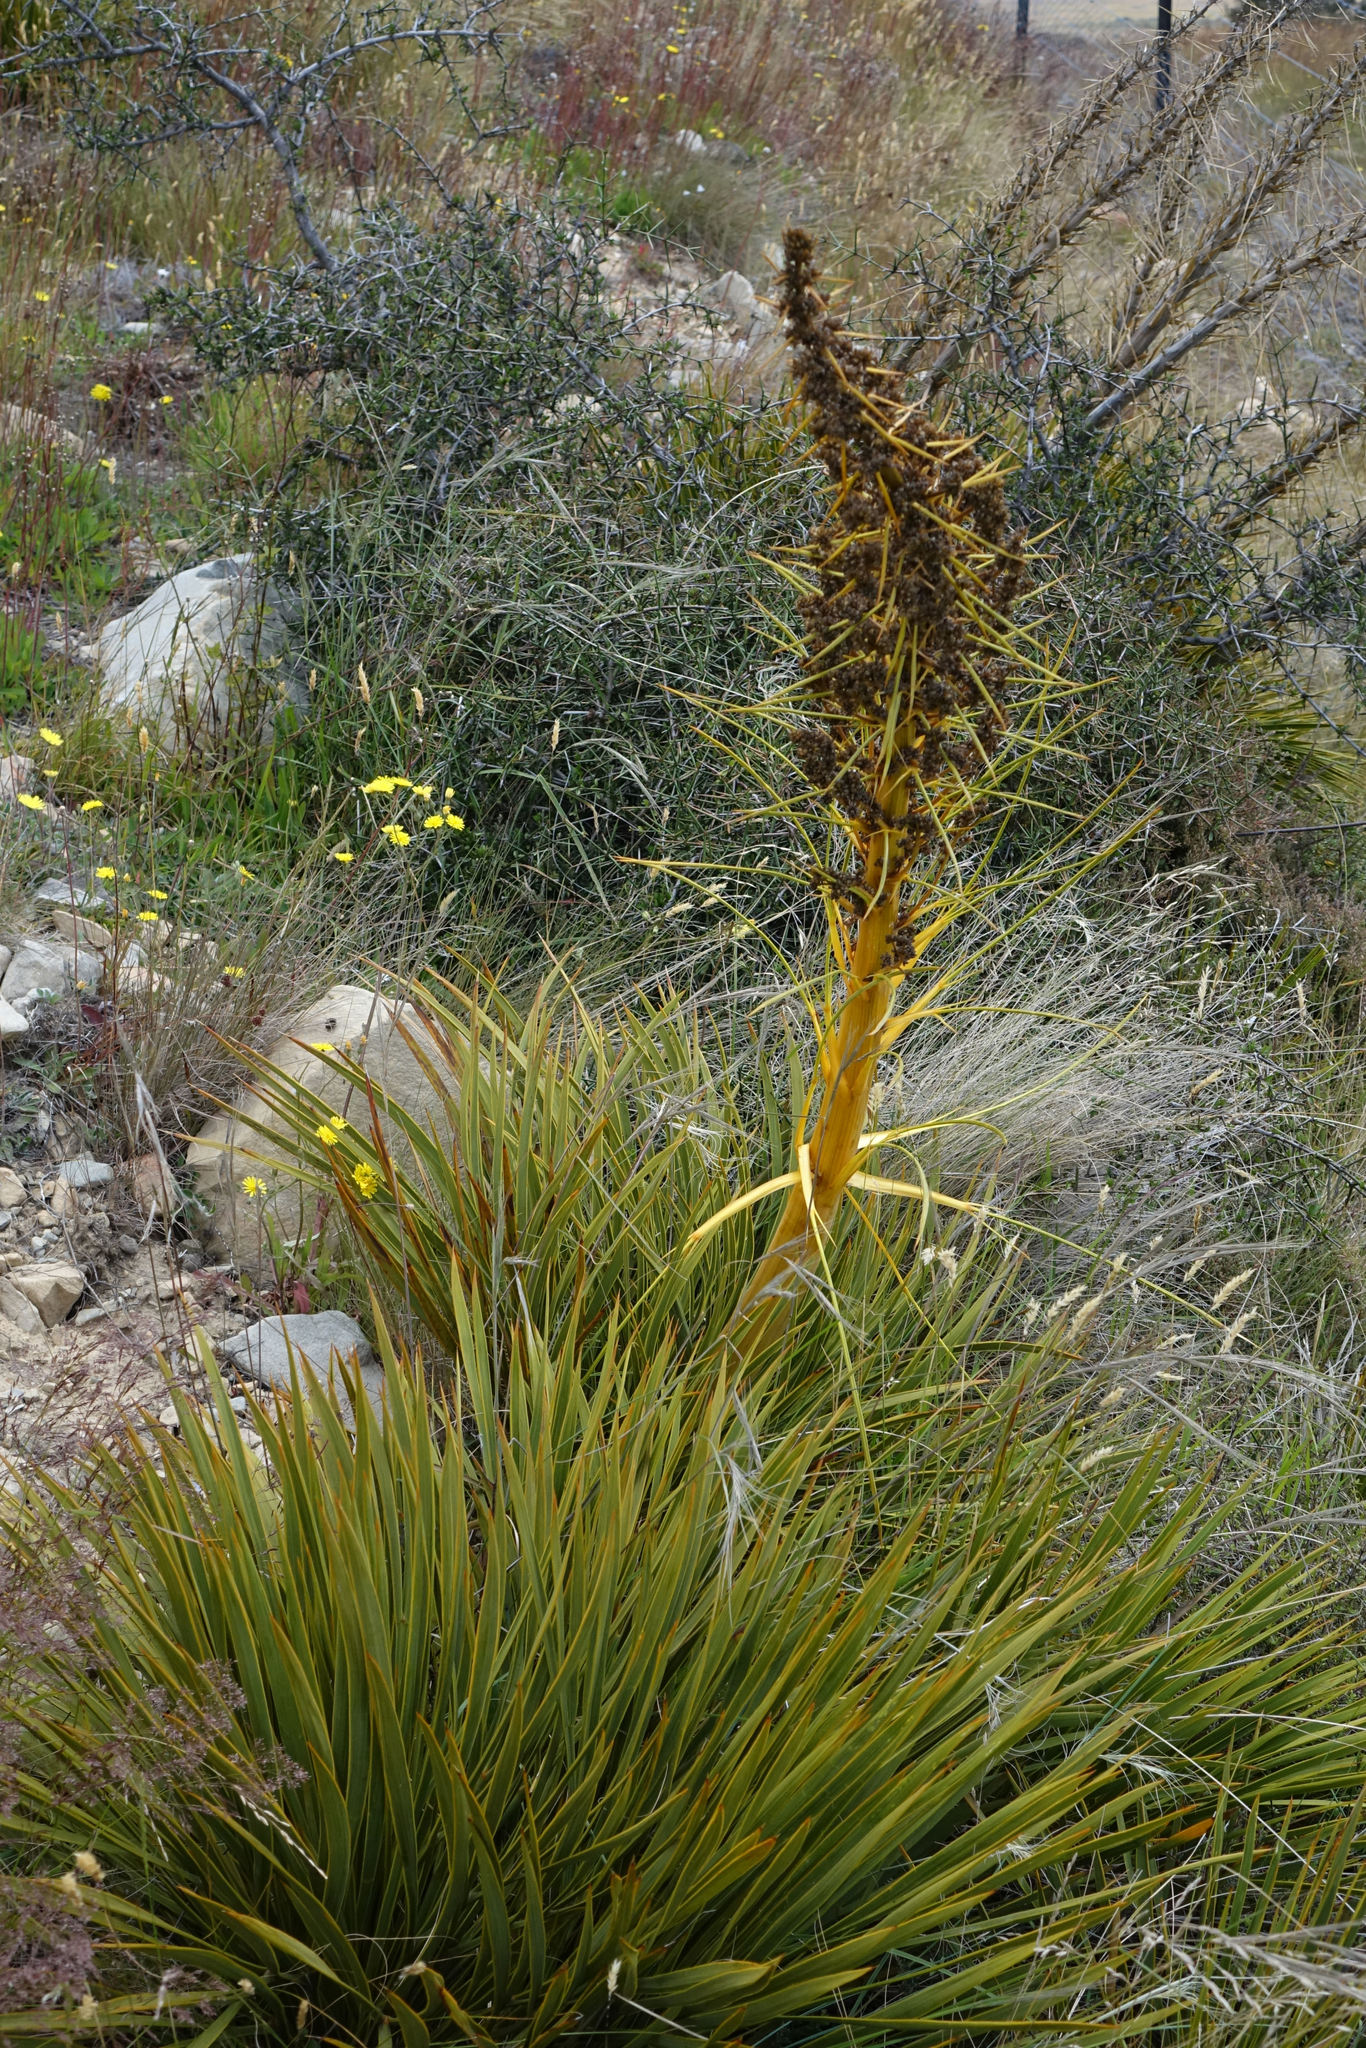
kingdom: Plantae
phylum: Tracheophyta
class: Magnoliopsida
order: Apiales
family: Apiaceae
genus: Aciphylla
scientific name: Aciphylla aurea
